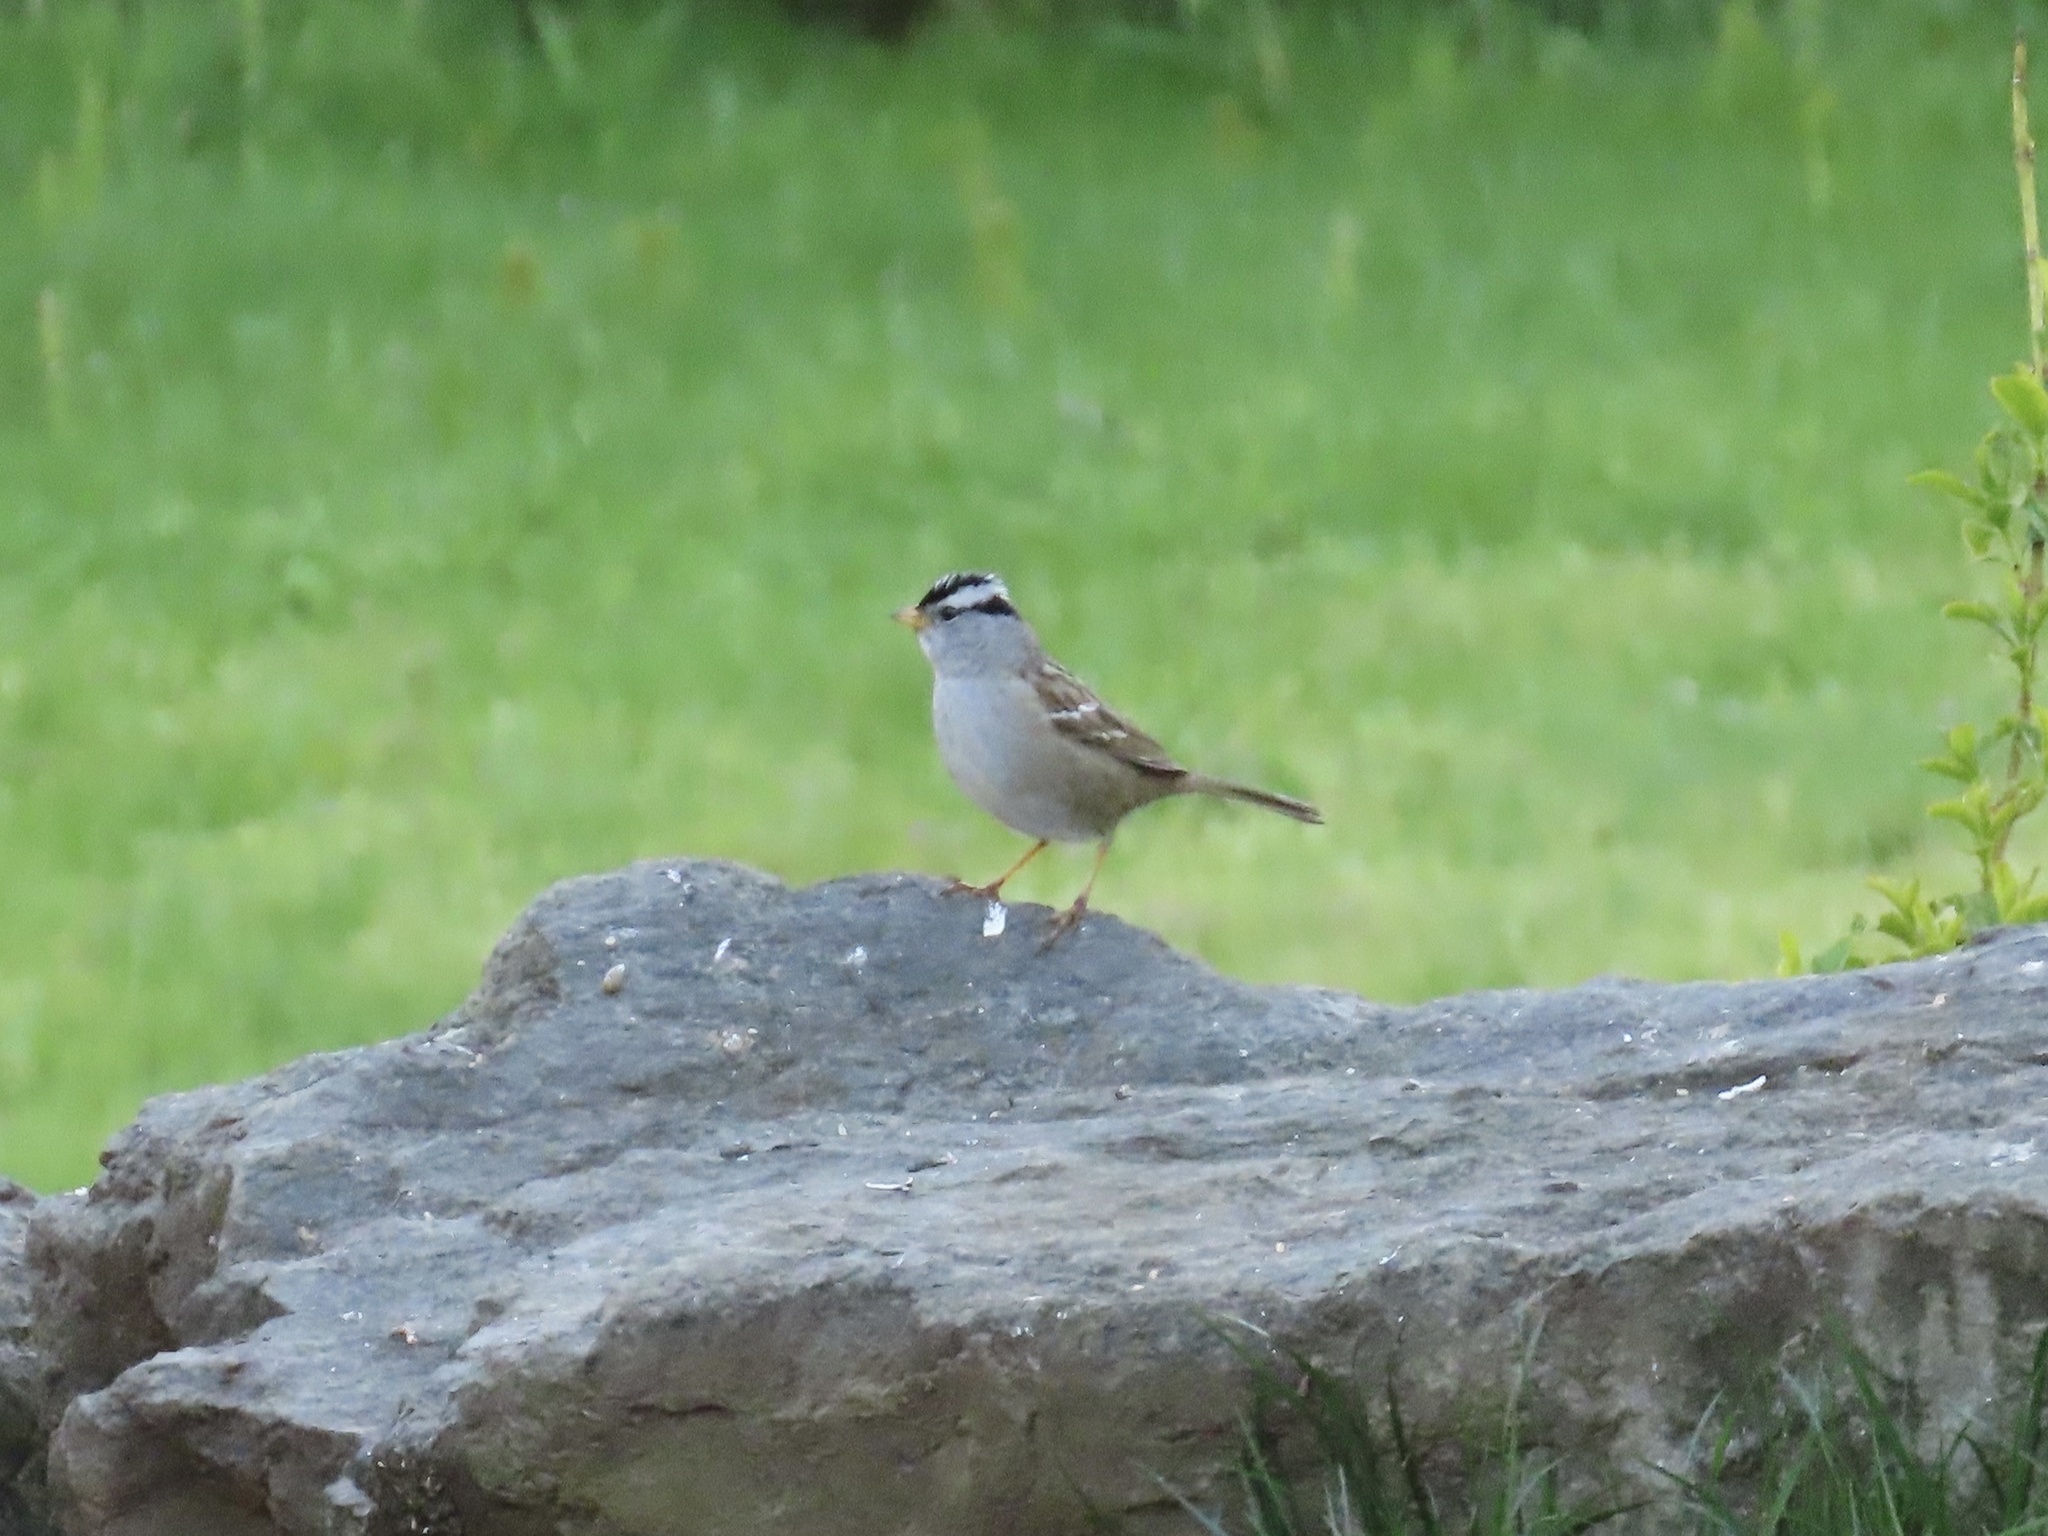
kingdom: Animalia
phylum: Chordata
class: Aves
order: Passeriformes
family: Passerellidae
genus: Zonotrichia
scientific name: Zonotrichia leucophrys
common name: White-crowned sparrow
